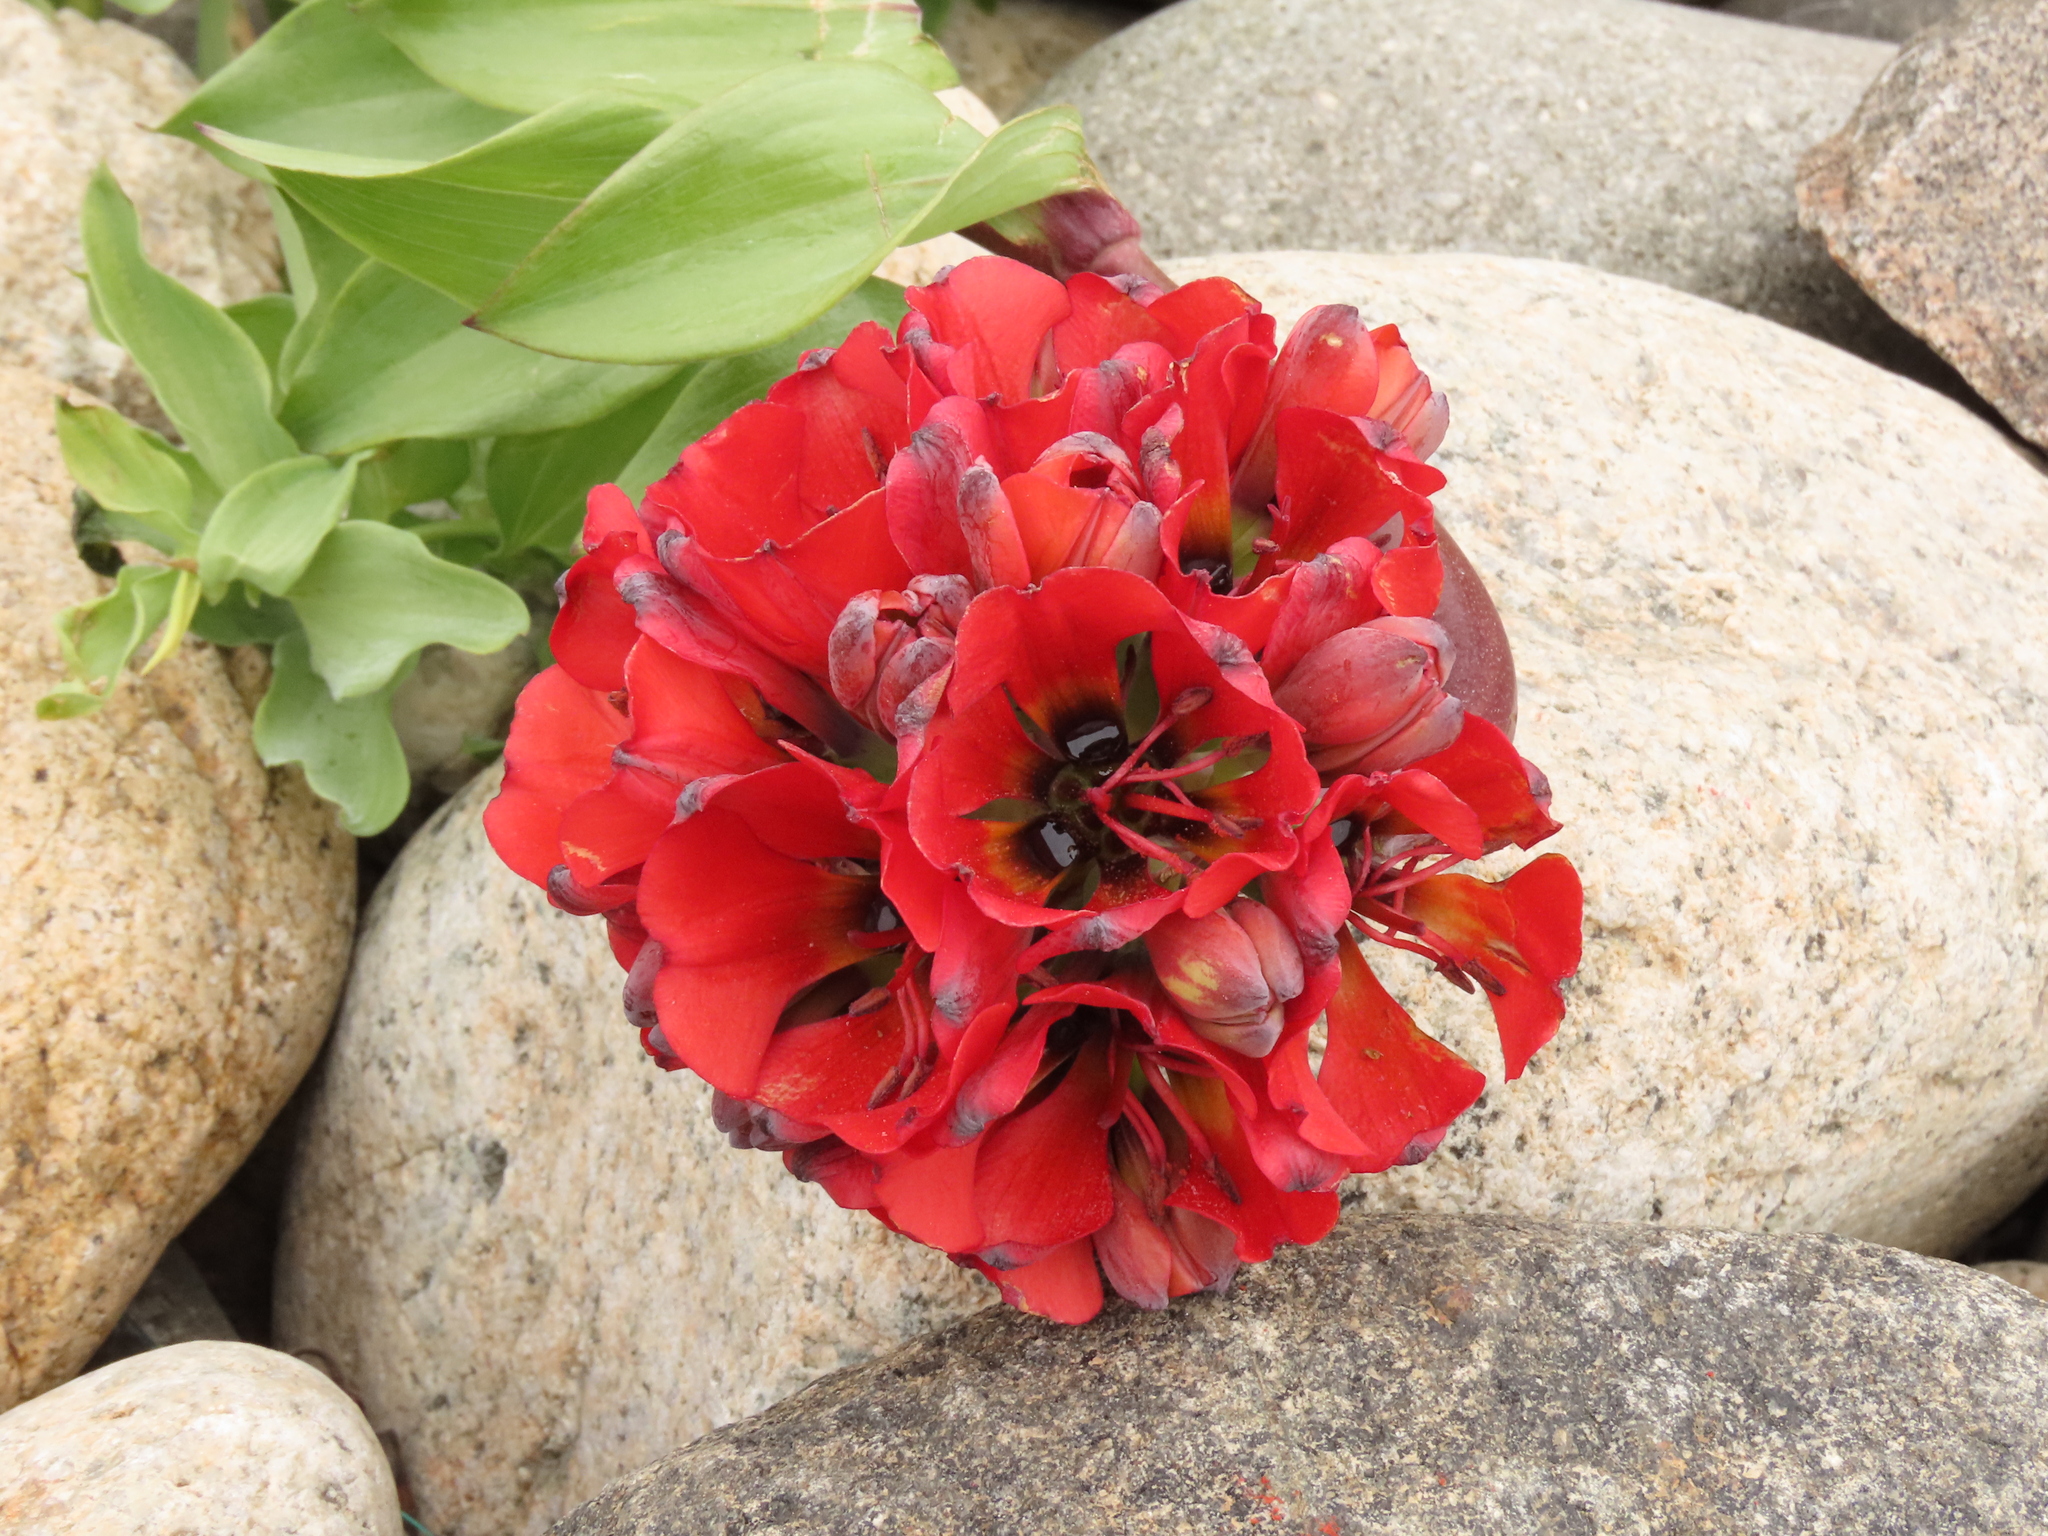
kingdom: Plantae
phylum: Tracheophyta
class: Liliopsida
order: Liliales
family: Alstroemeriaceae
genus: Bomarea
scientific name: Bomarea ovallei
